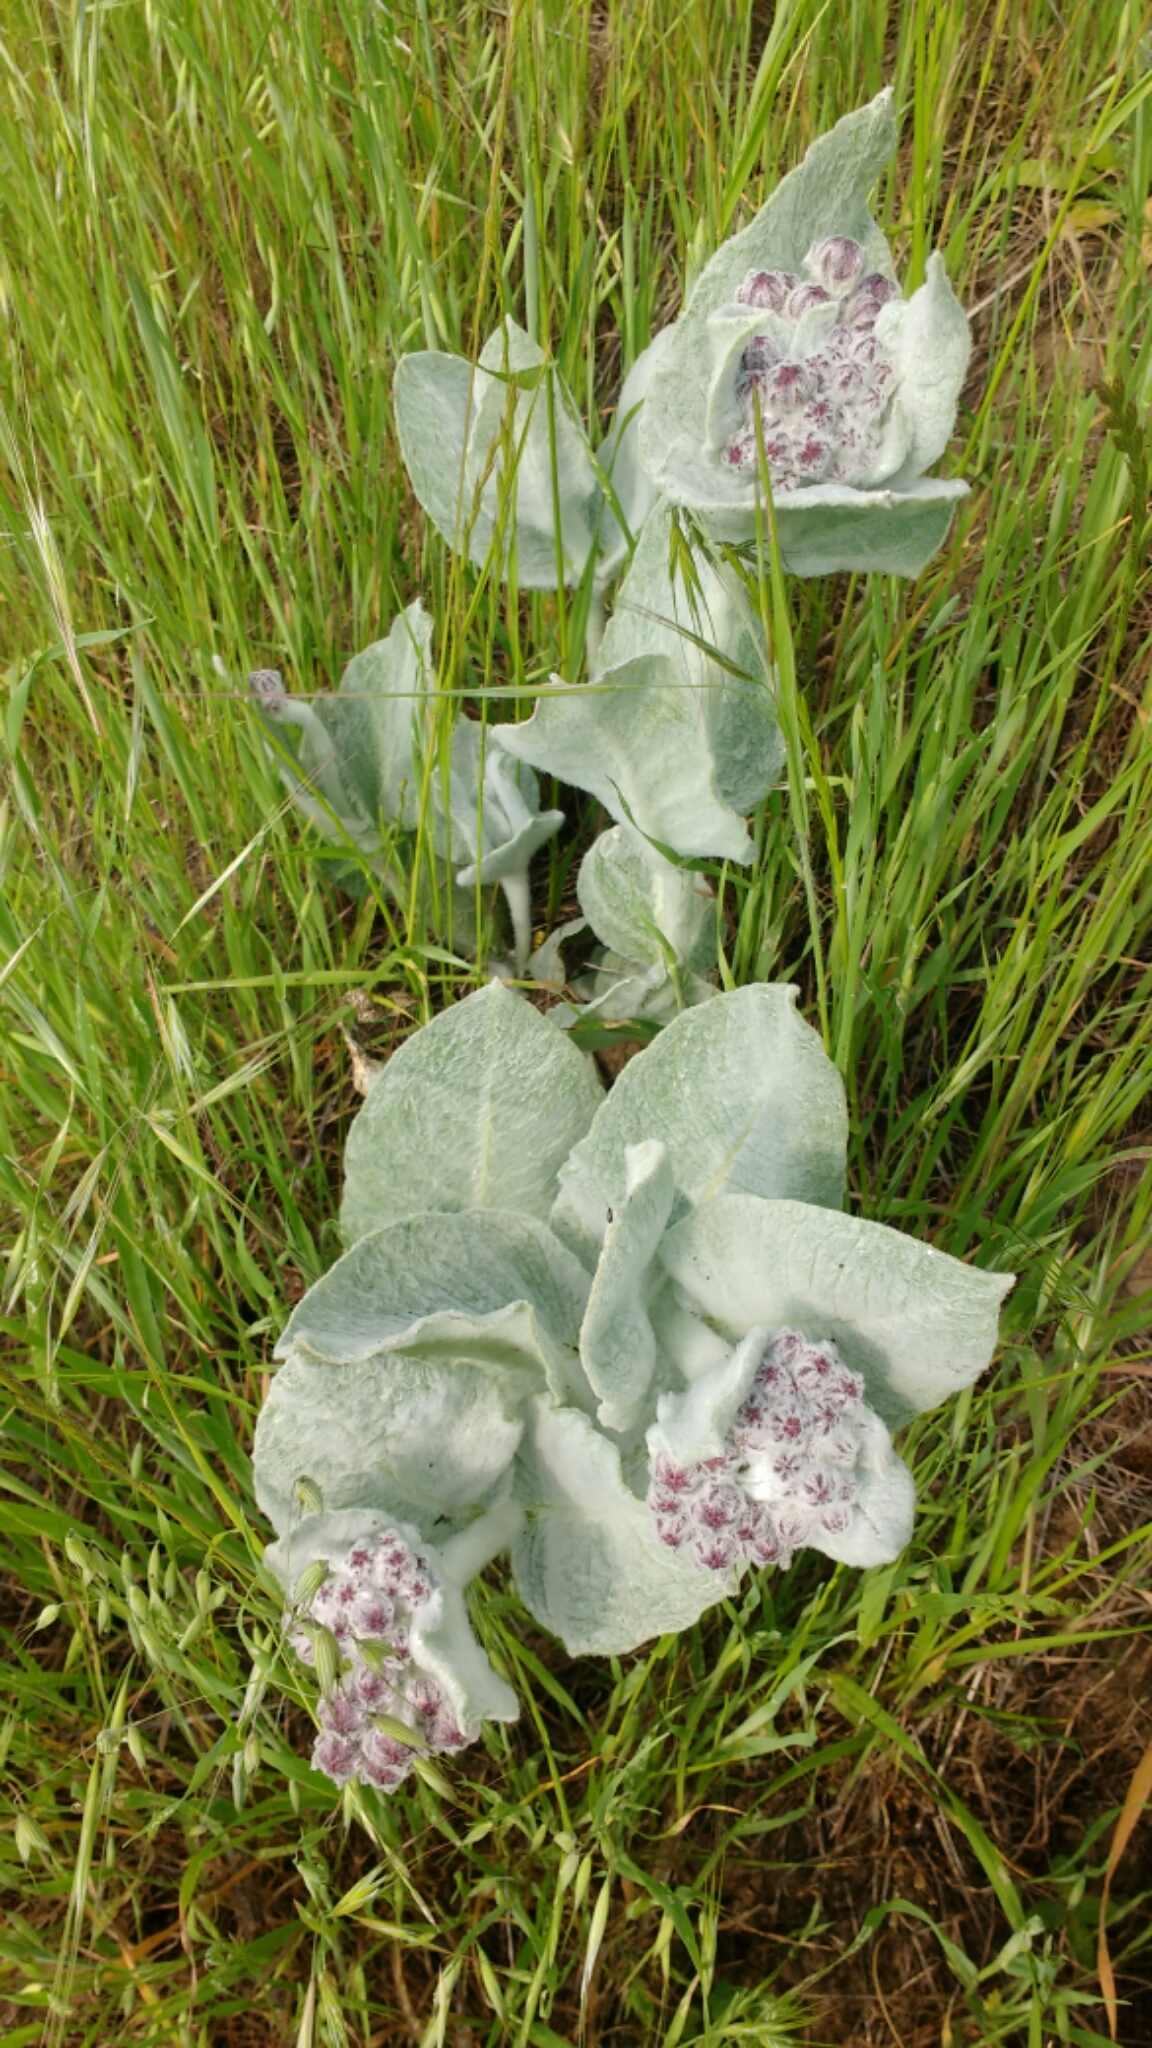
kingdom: Plantae
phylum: Tracheophyta
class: Magnoliopsida
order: Gentianales
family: Apocynaceae
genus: Asclepias
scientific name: Asclepias californica
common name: California milkweed
